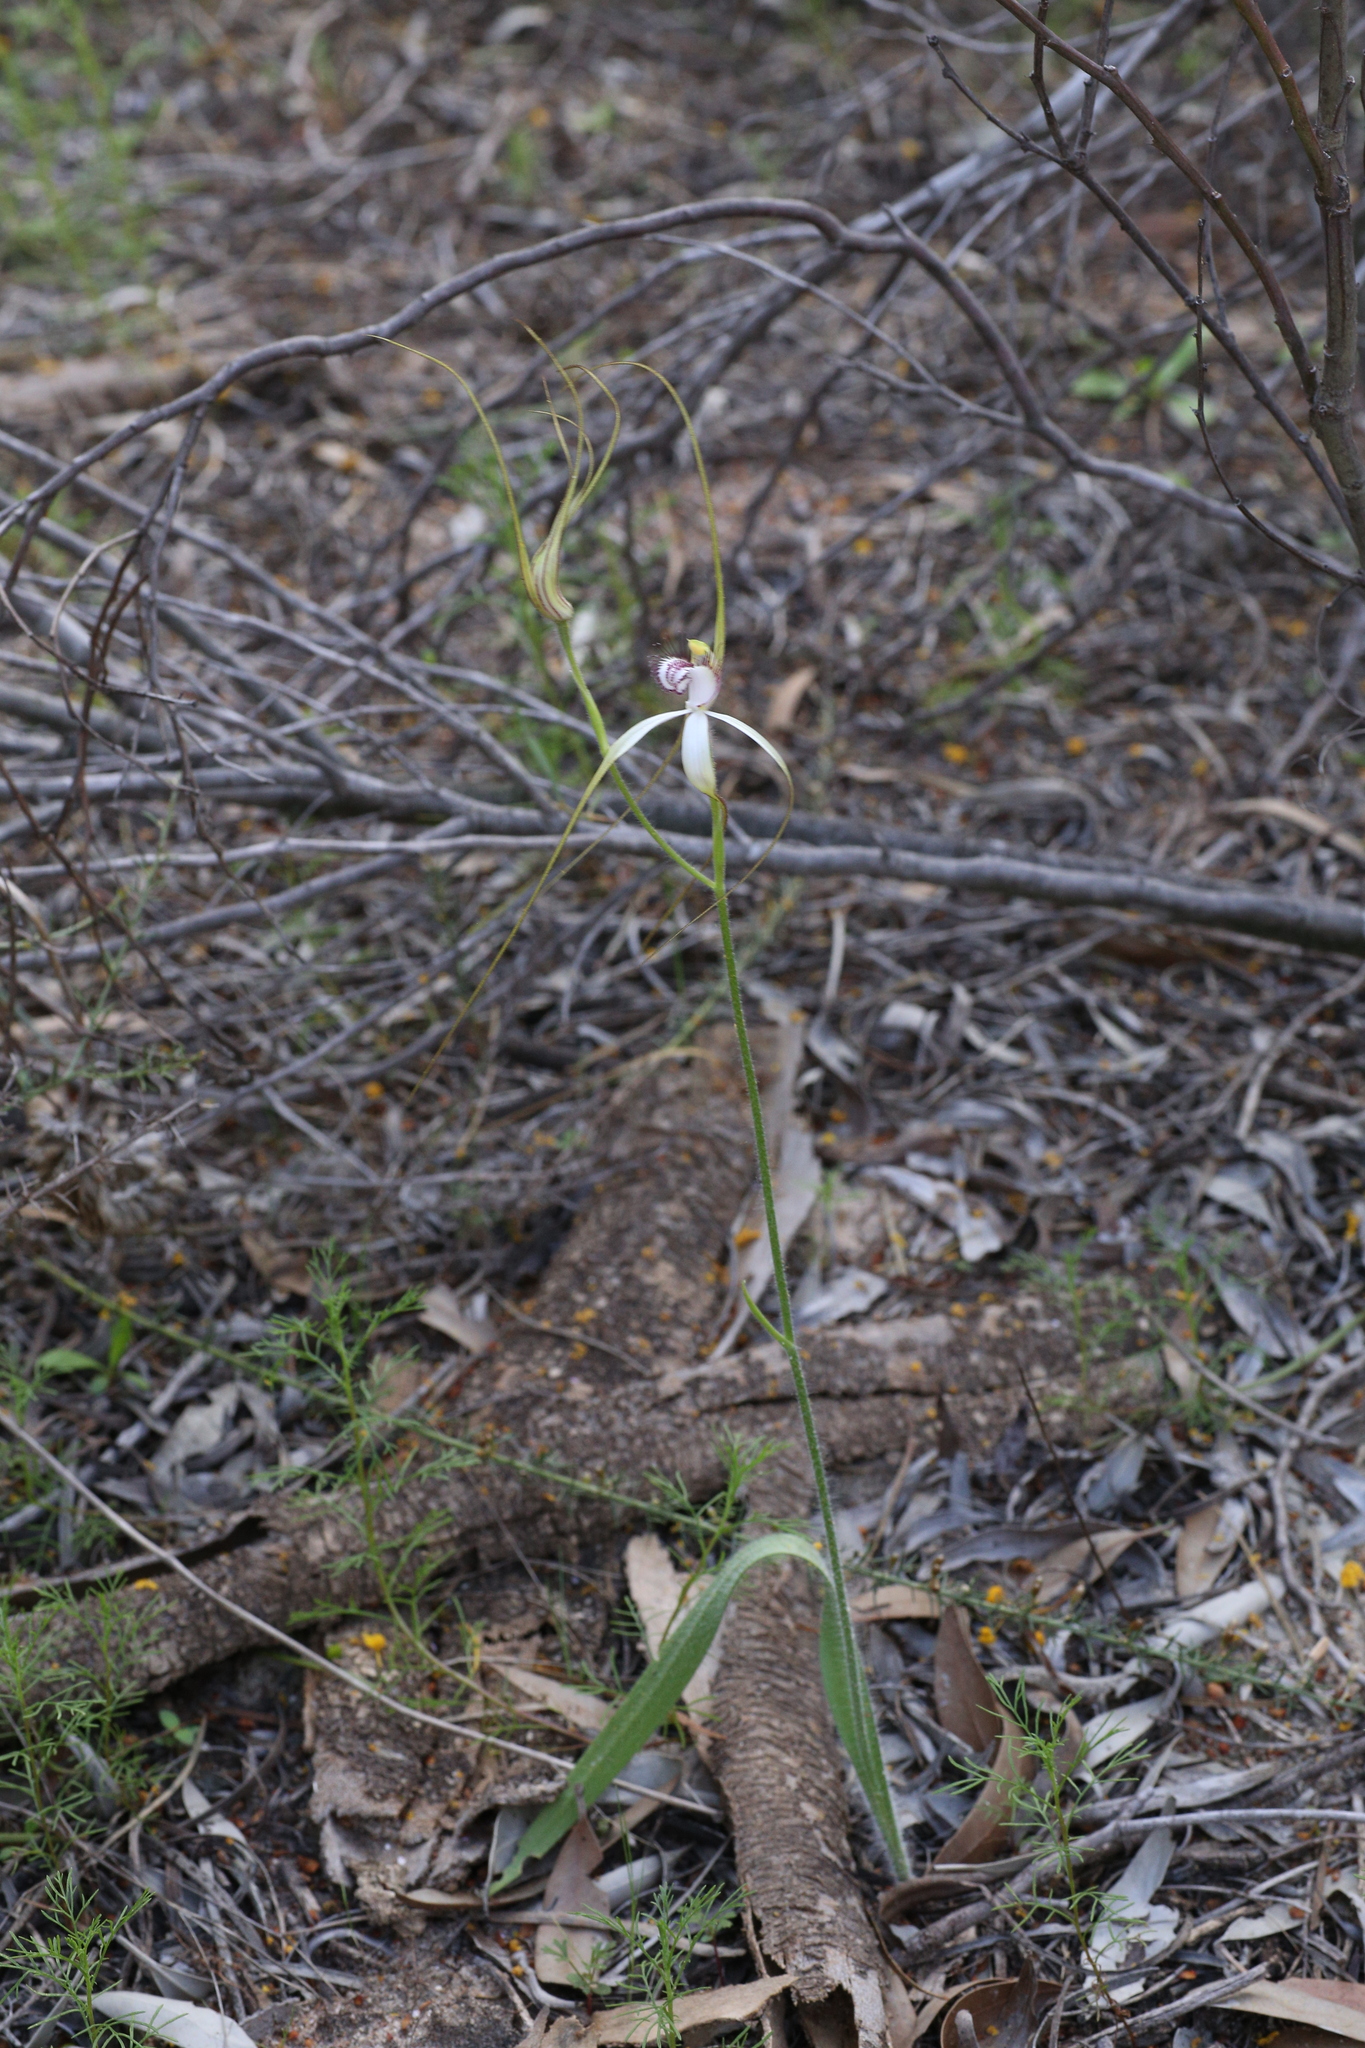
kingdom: Plantae
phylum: Tracheophyta
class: Liliopsida
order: Asparagales
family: Orchidaceae
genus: Caladenia
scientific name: Caladenia longicauda
